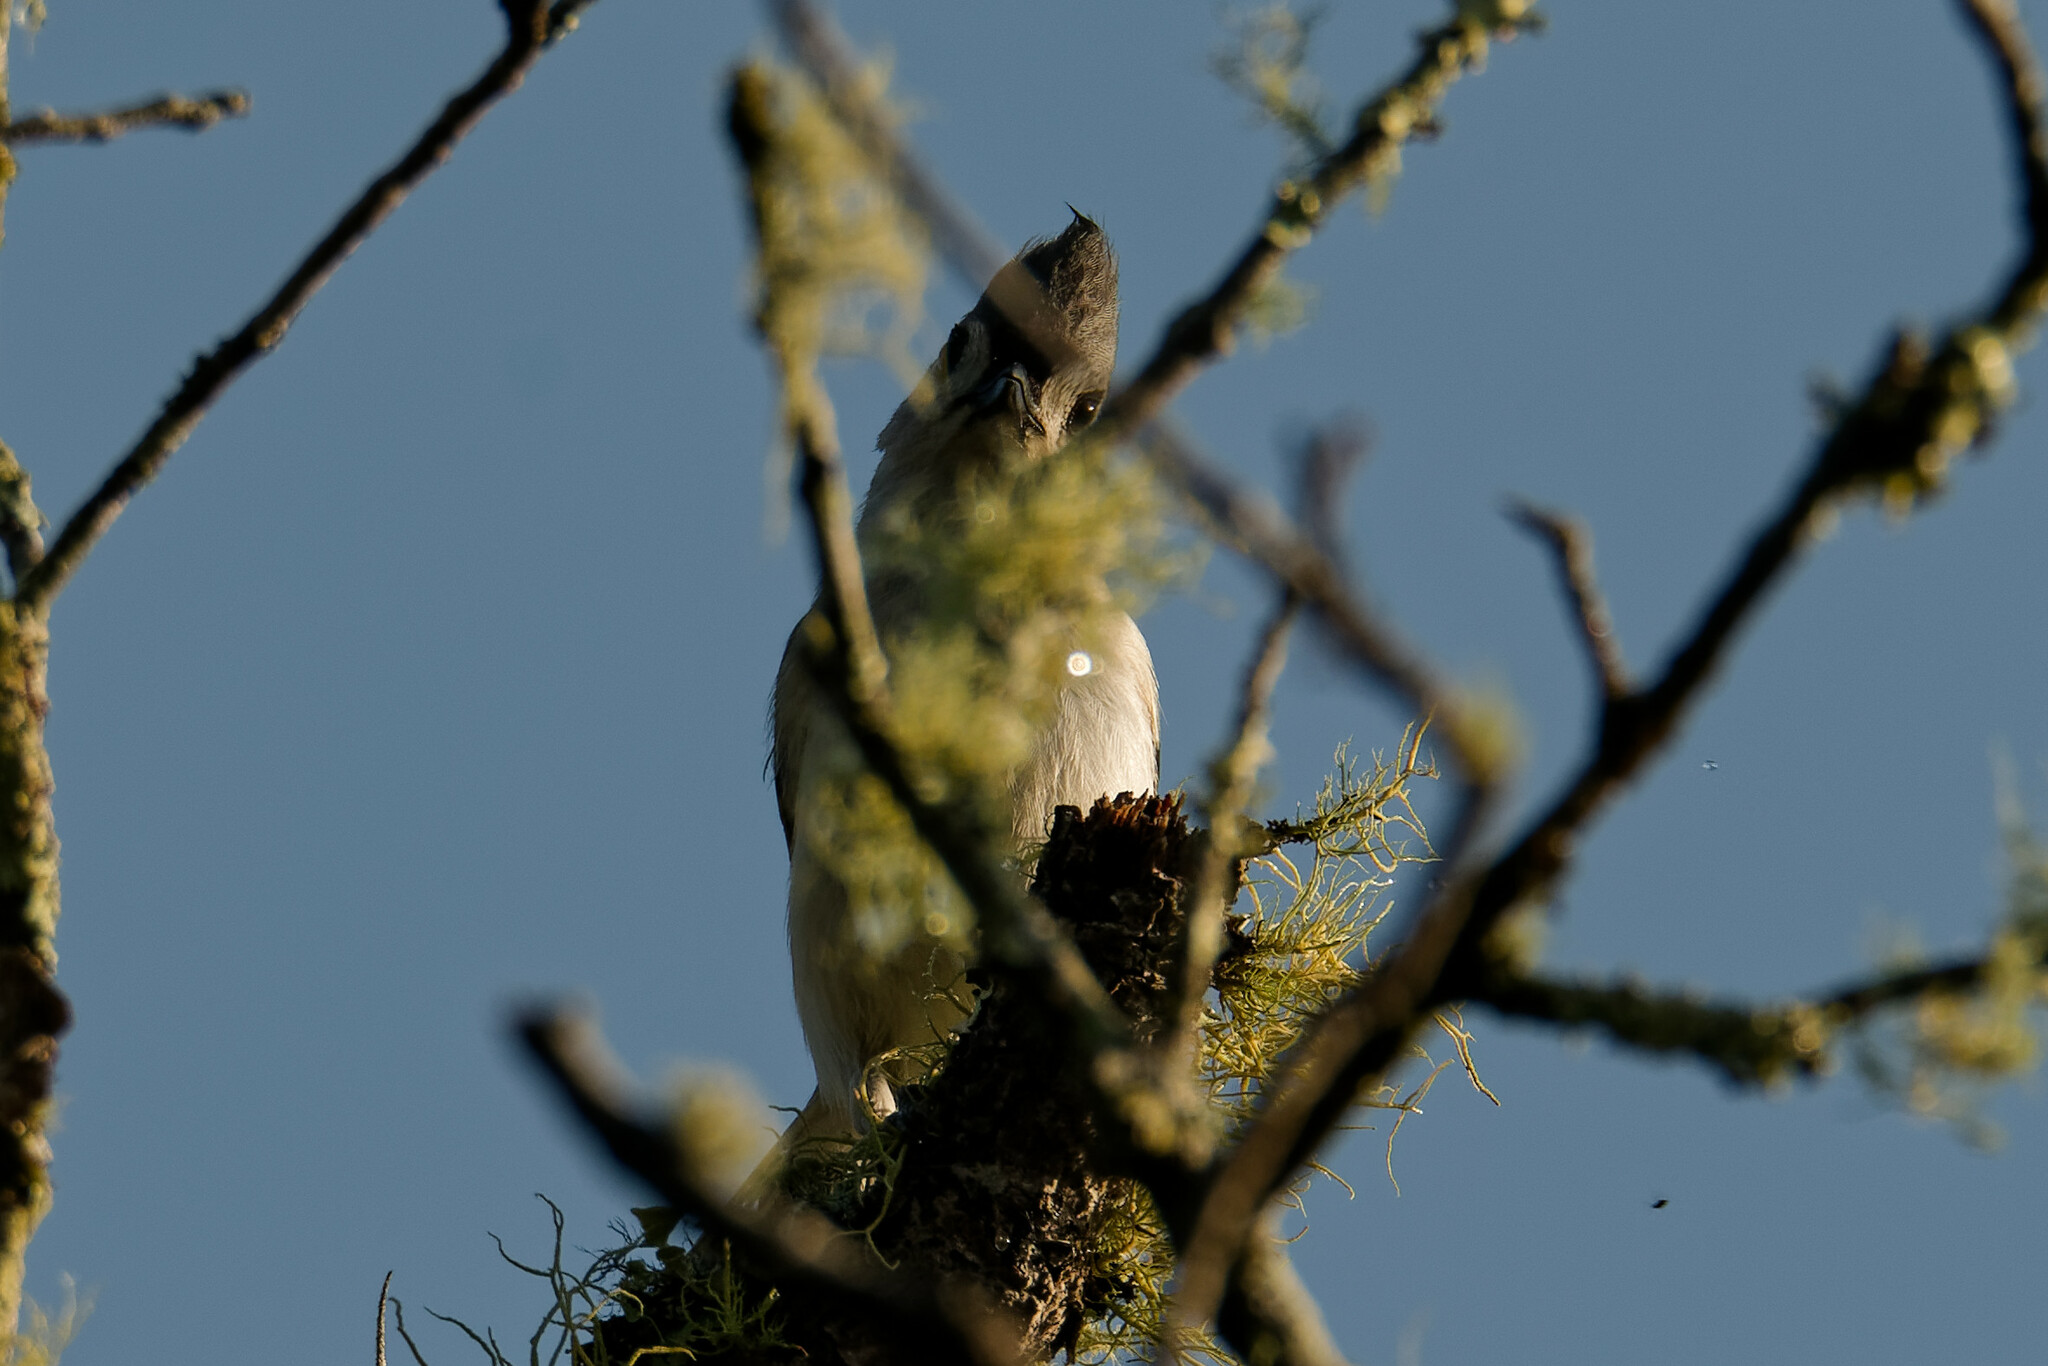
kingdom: Animalia
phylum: Chordata
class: Aves
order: Passeriformes
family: Paridae
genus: Baeolophus
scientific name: Baeolophus bicolor
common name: Tufted titmouse
